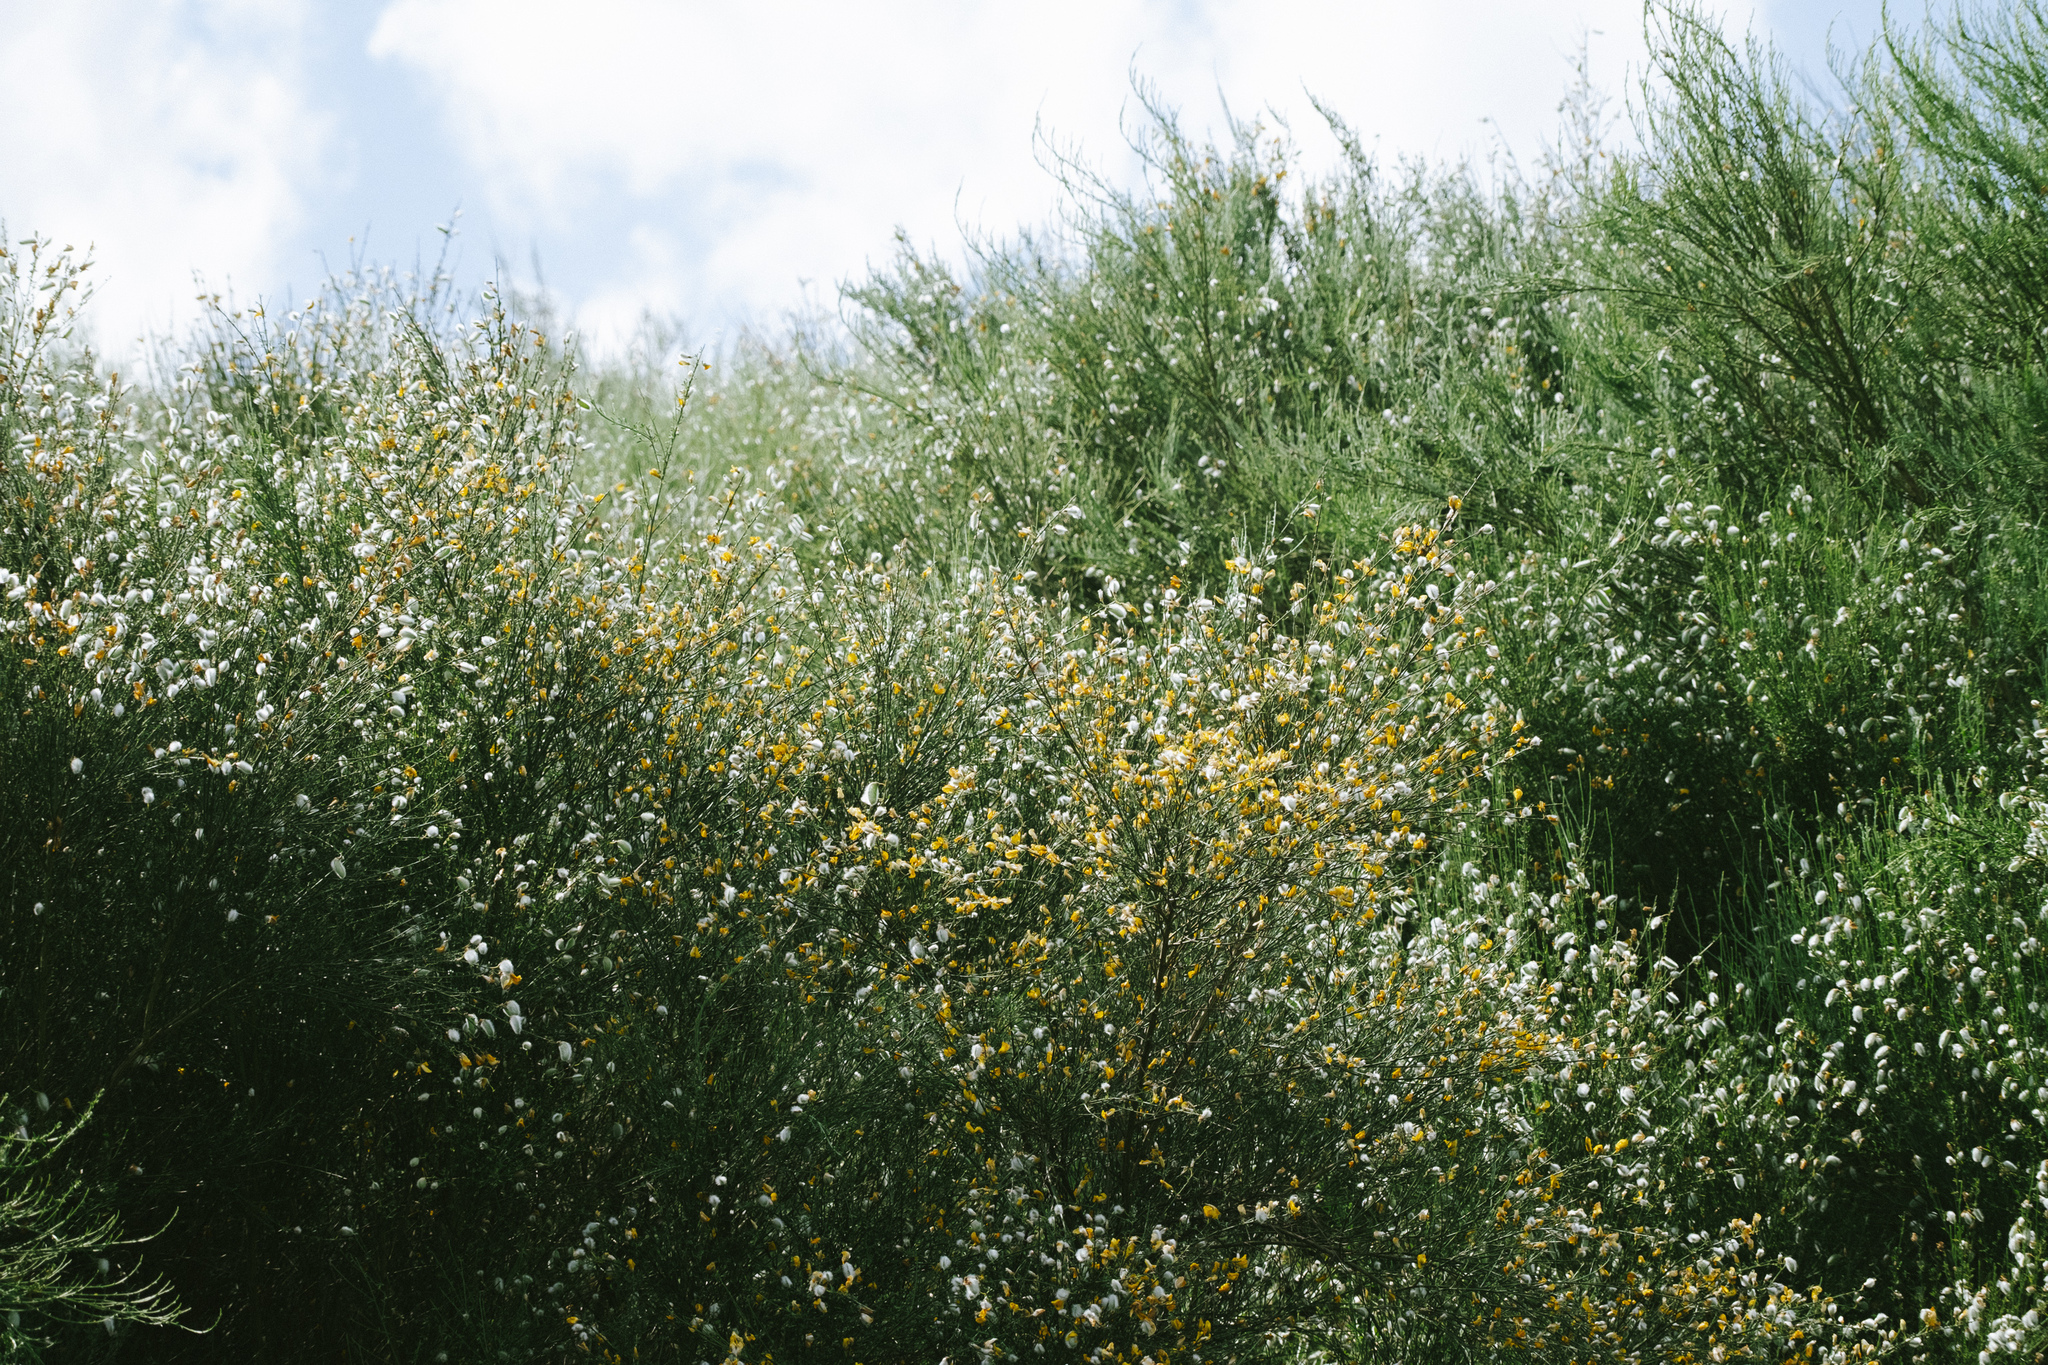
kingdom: Plantae
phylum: Tracheophyta
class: Magnoliopsida
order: Fabales
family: Fabaceae
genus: Cytisus
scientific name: Cytisus striatus
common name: Hairy-fruited broom
